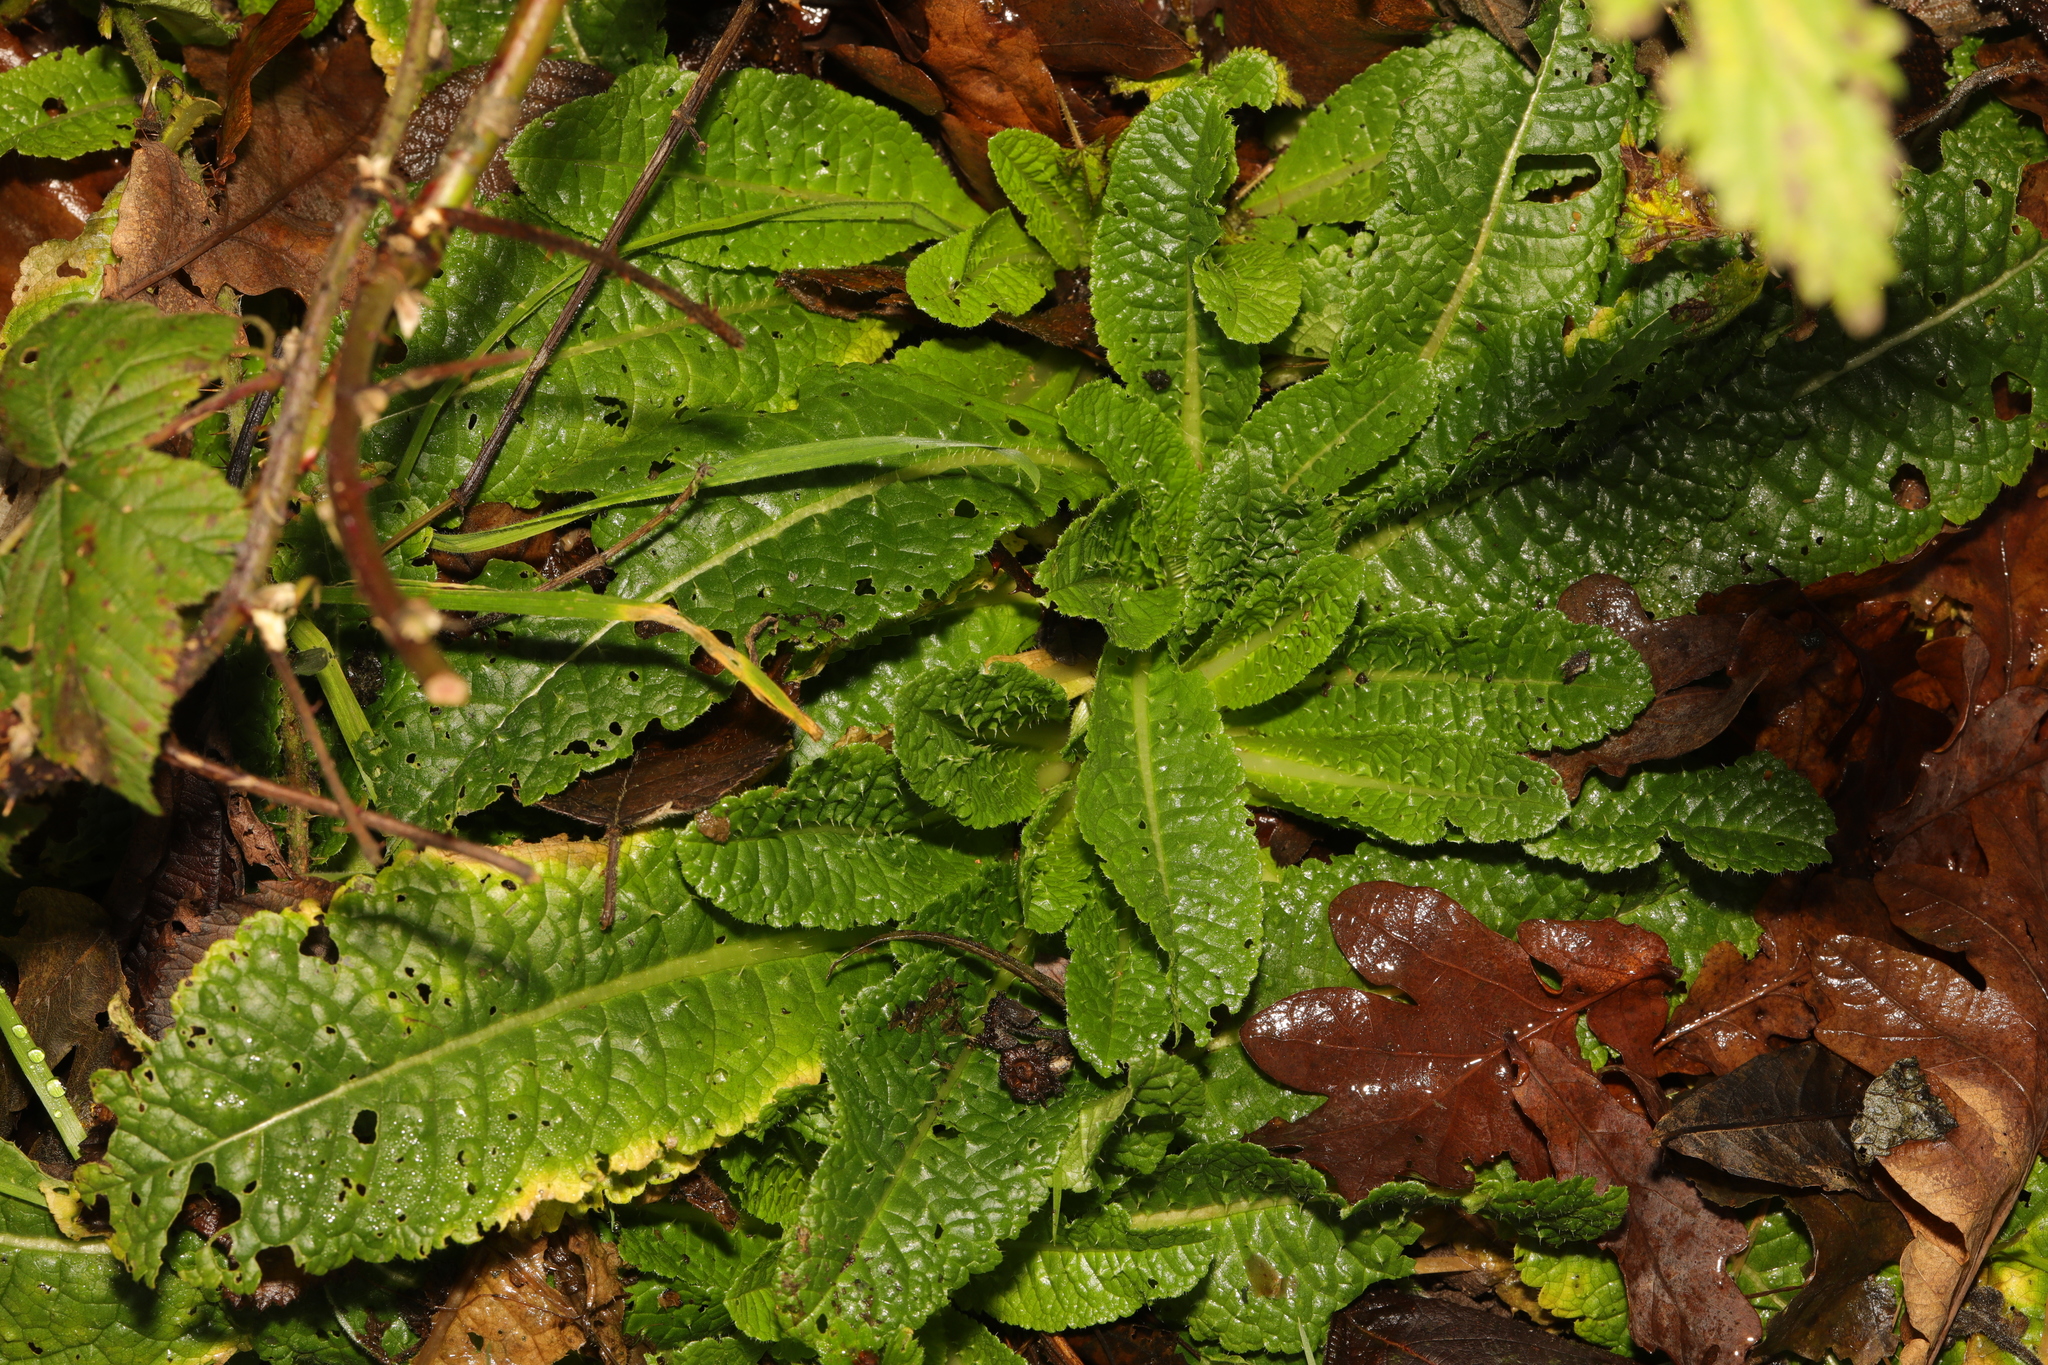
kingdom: Plantae
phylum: Tracheophyta
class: Magnoliopsida
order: Dipsacales
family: Caprifoliaceae
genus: Dipsacus
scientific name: Dipsacus fullonum
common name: Teasel
